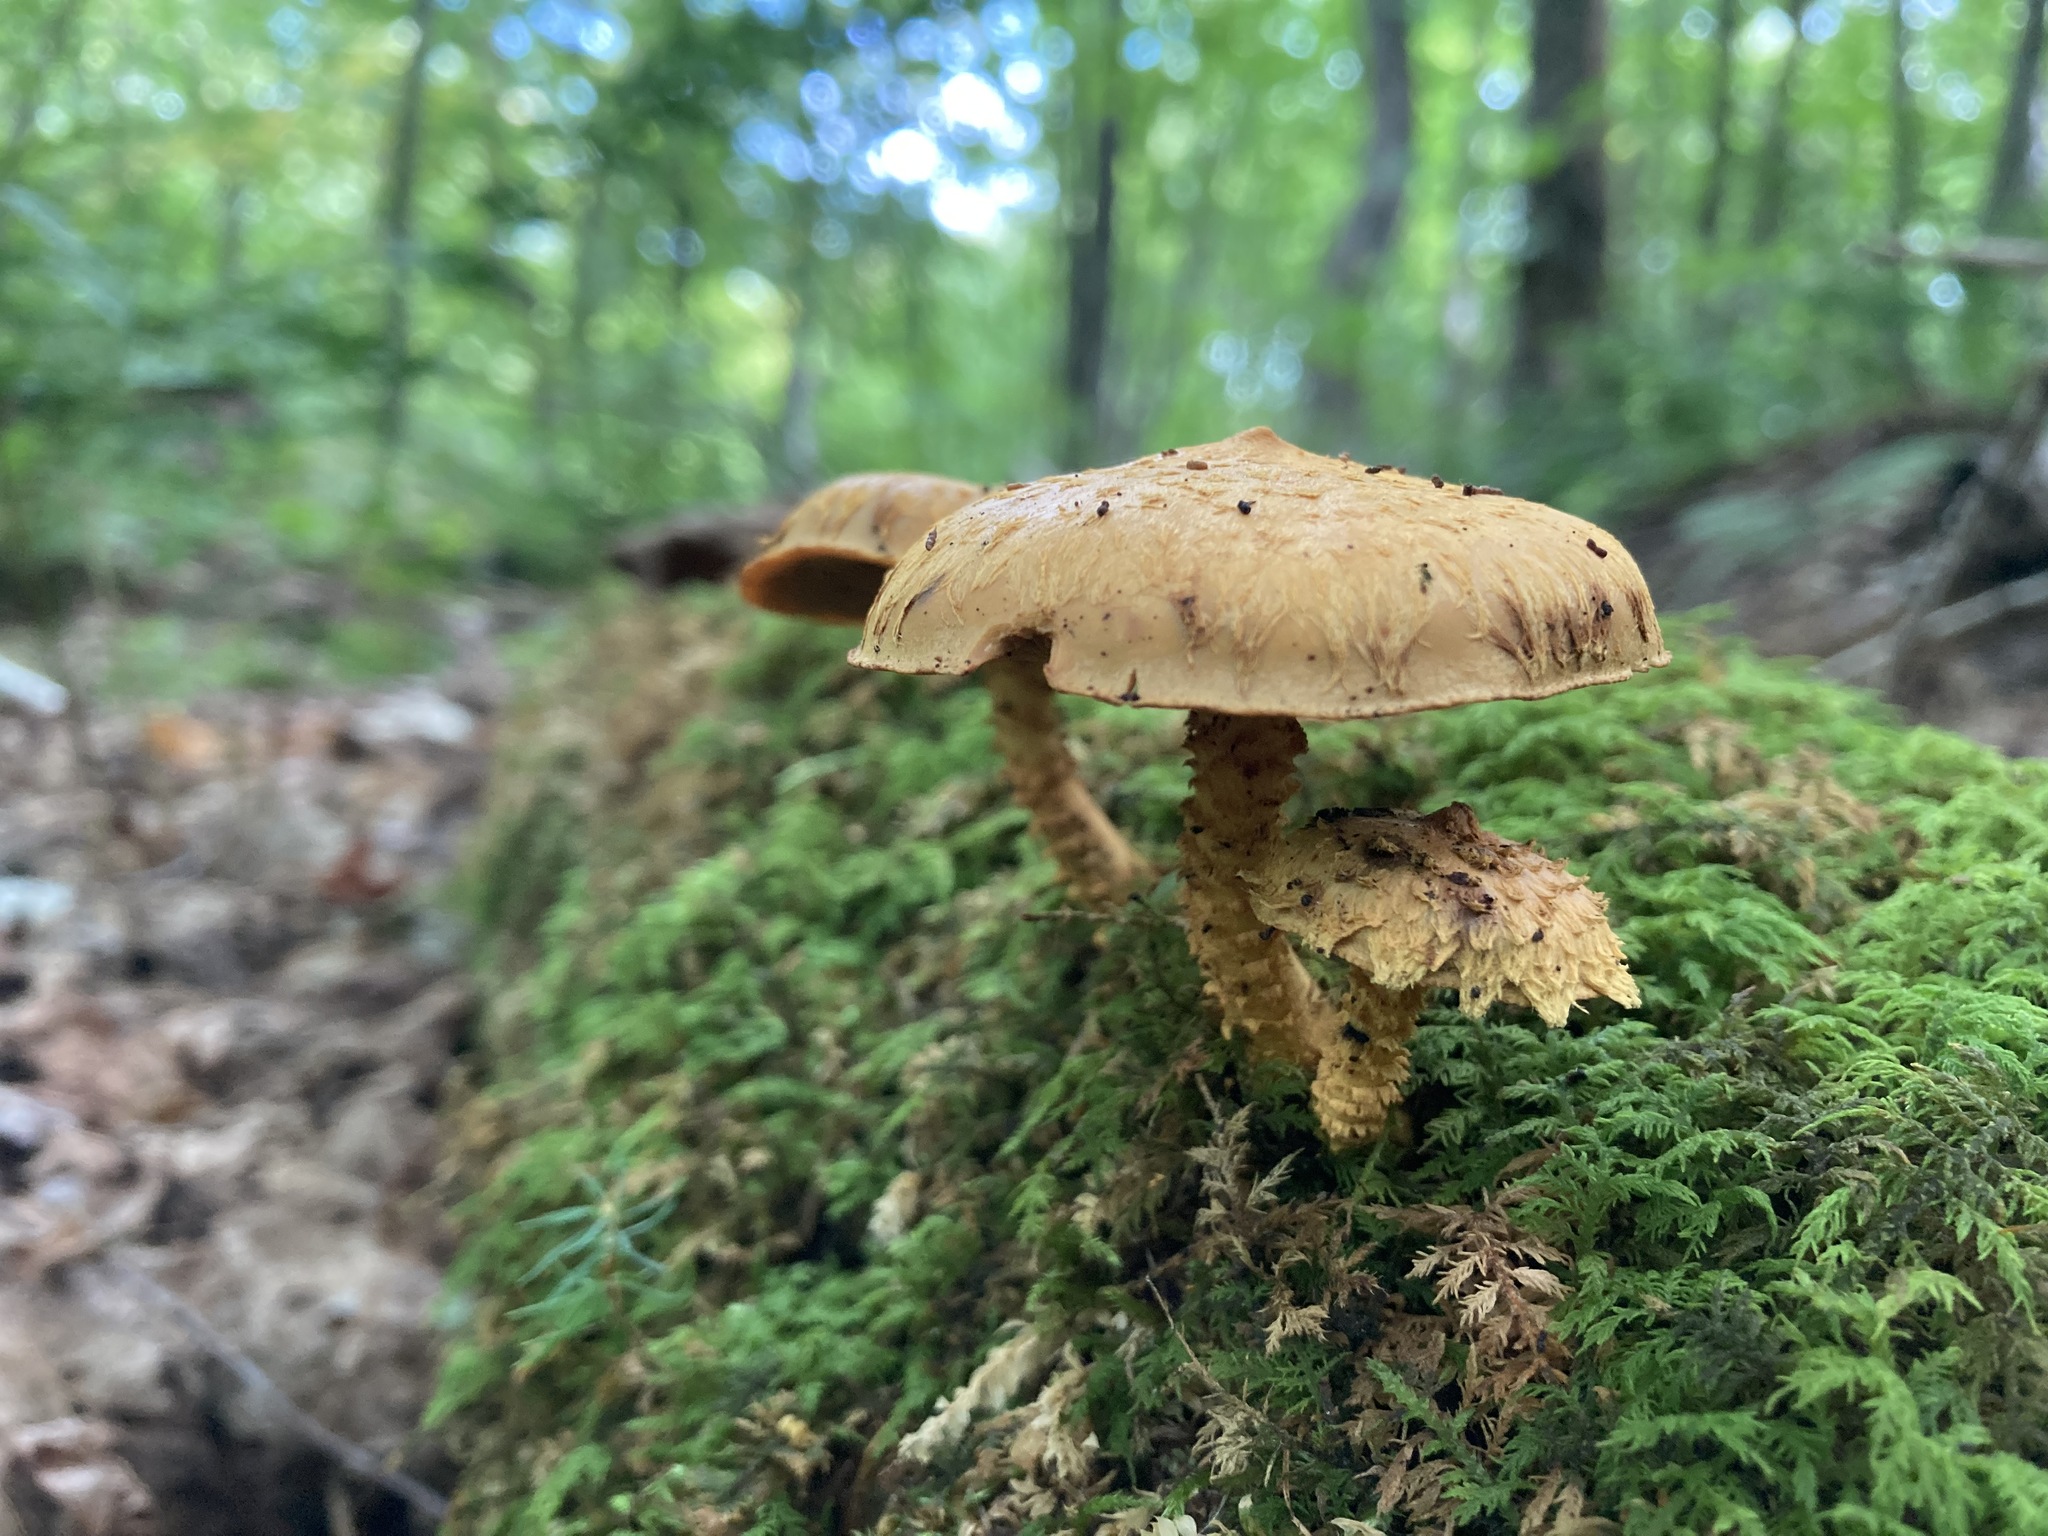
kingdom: Fungi
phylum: Basidiomycota
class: Agaricomycetes
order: Agaricales
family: Strophariaceae
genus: Pholiota
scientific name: Pholiota flammans
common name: Flaming scalycap
